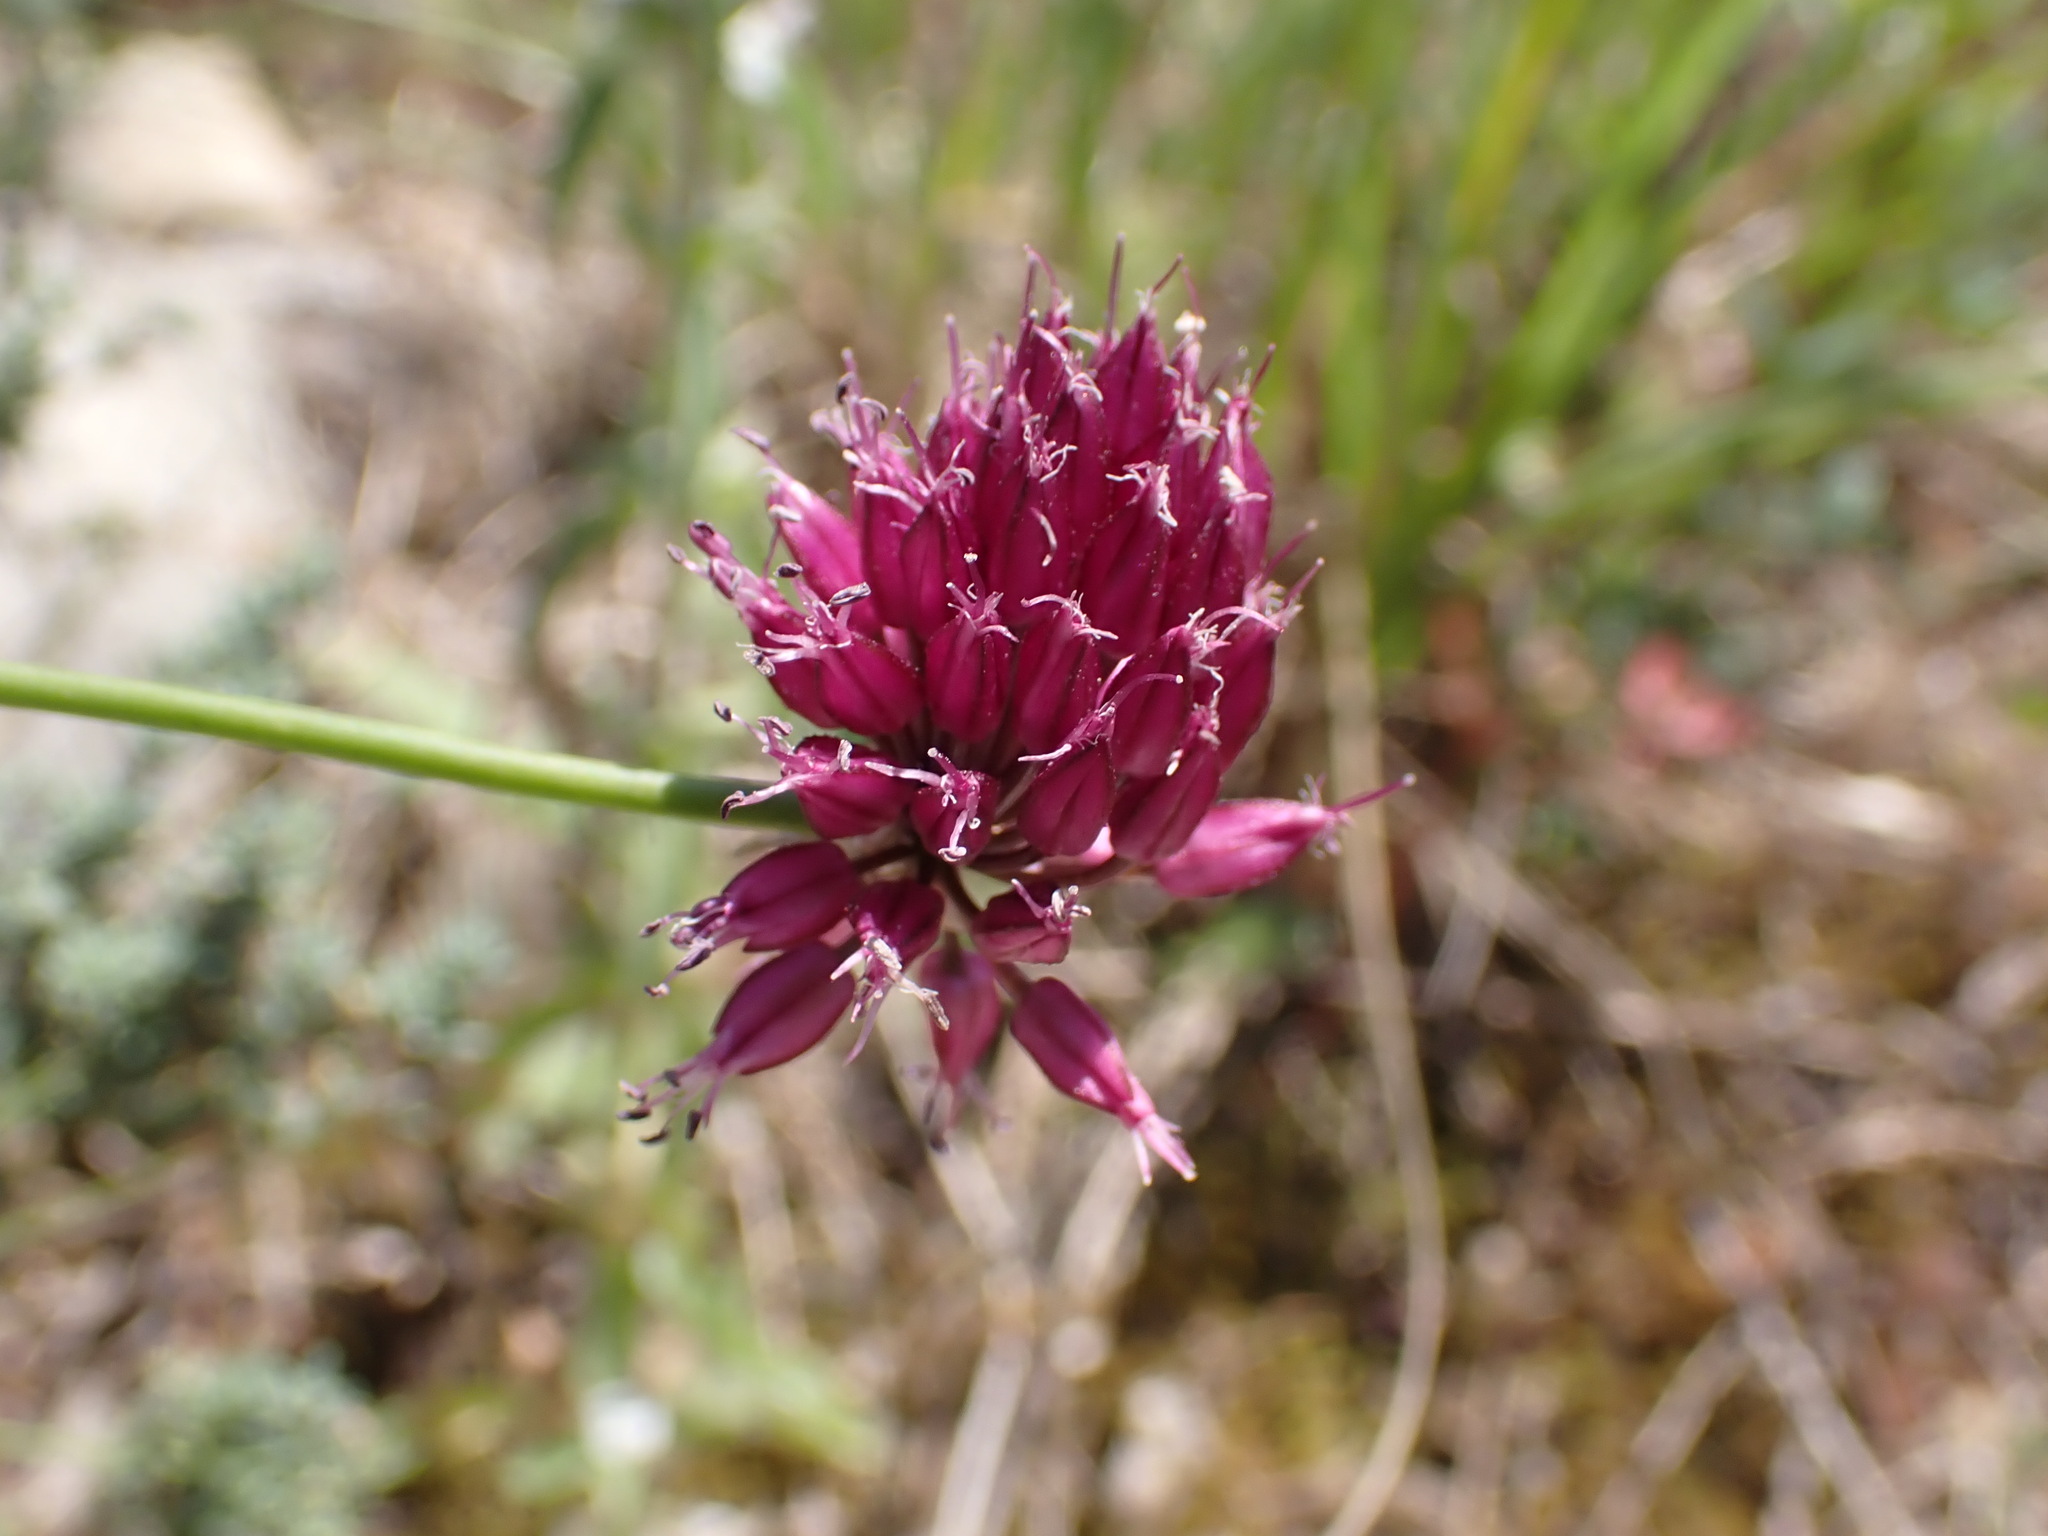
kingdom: Plantae
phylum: Tracheophyta
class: Liliopsida
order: Asparagales
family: Amaryllidaceae
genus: Allium
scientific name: Allium sphaerocephalon
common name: Round-headed leek
